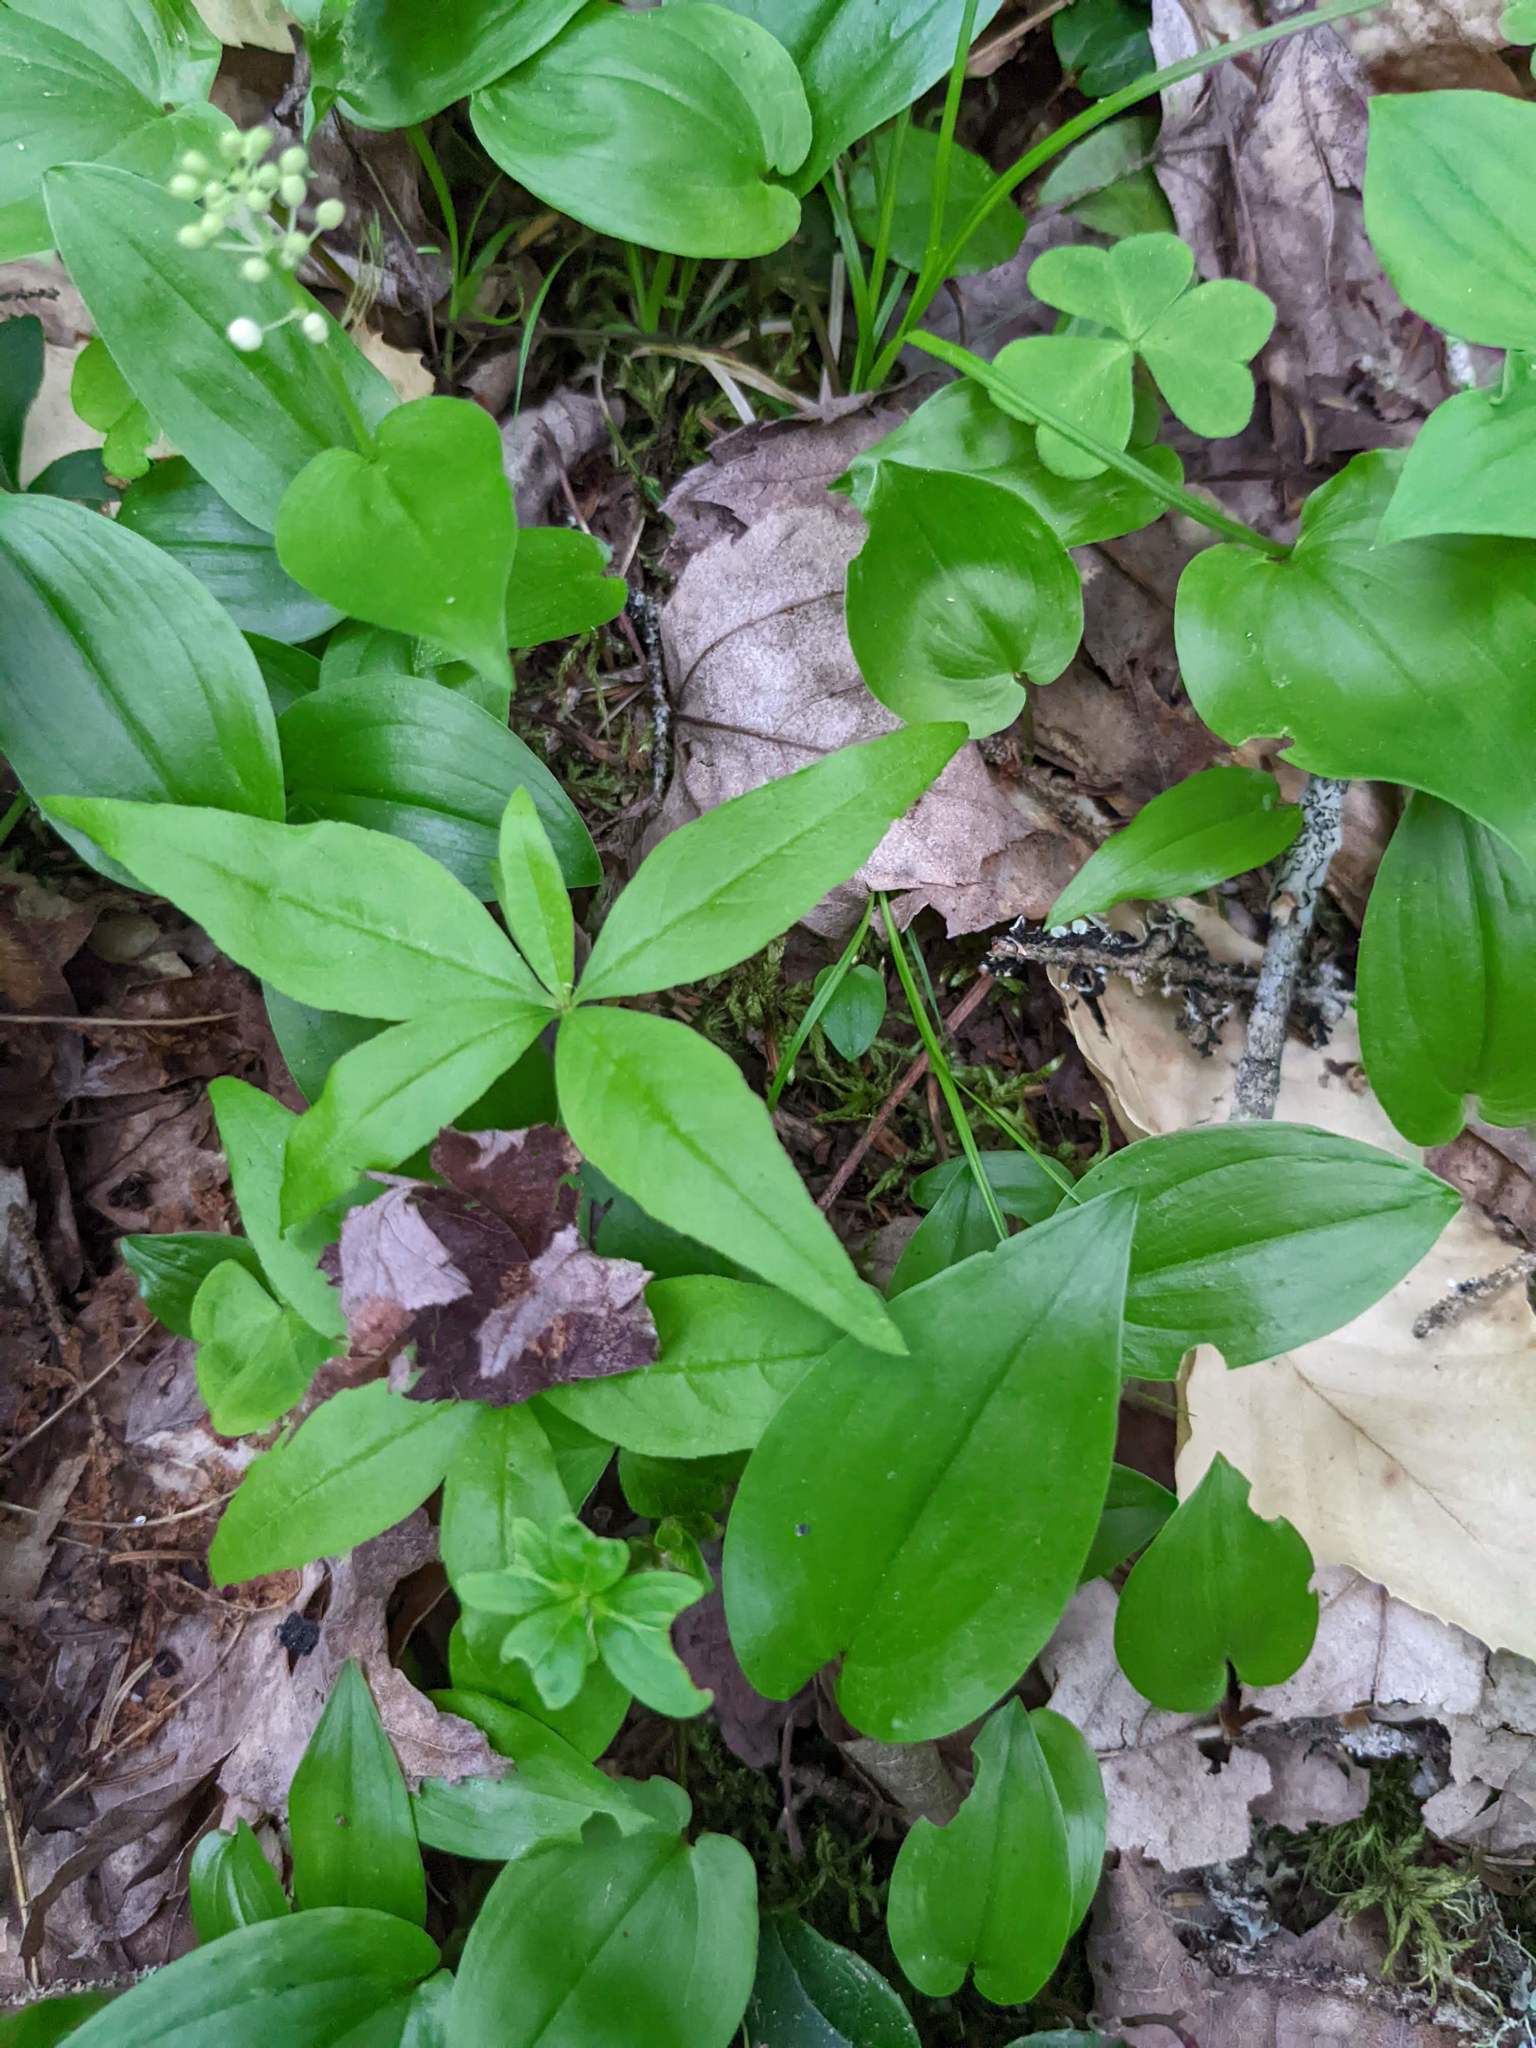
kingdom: Plantae
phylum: Tracheophyta
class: Magnoliopsida
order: Ericales
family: Primulaceae
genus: Lysimachia
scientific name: Lysimachia borealis
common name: American starflower
